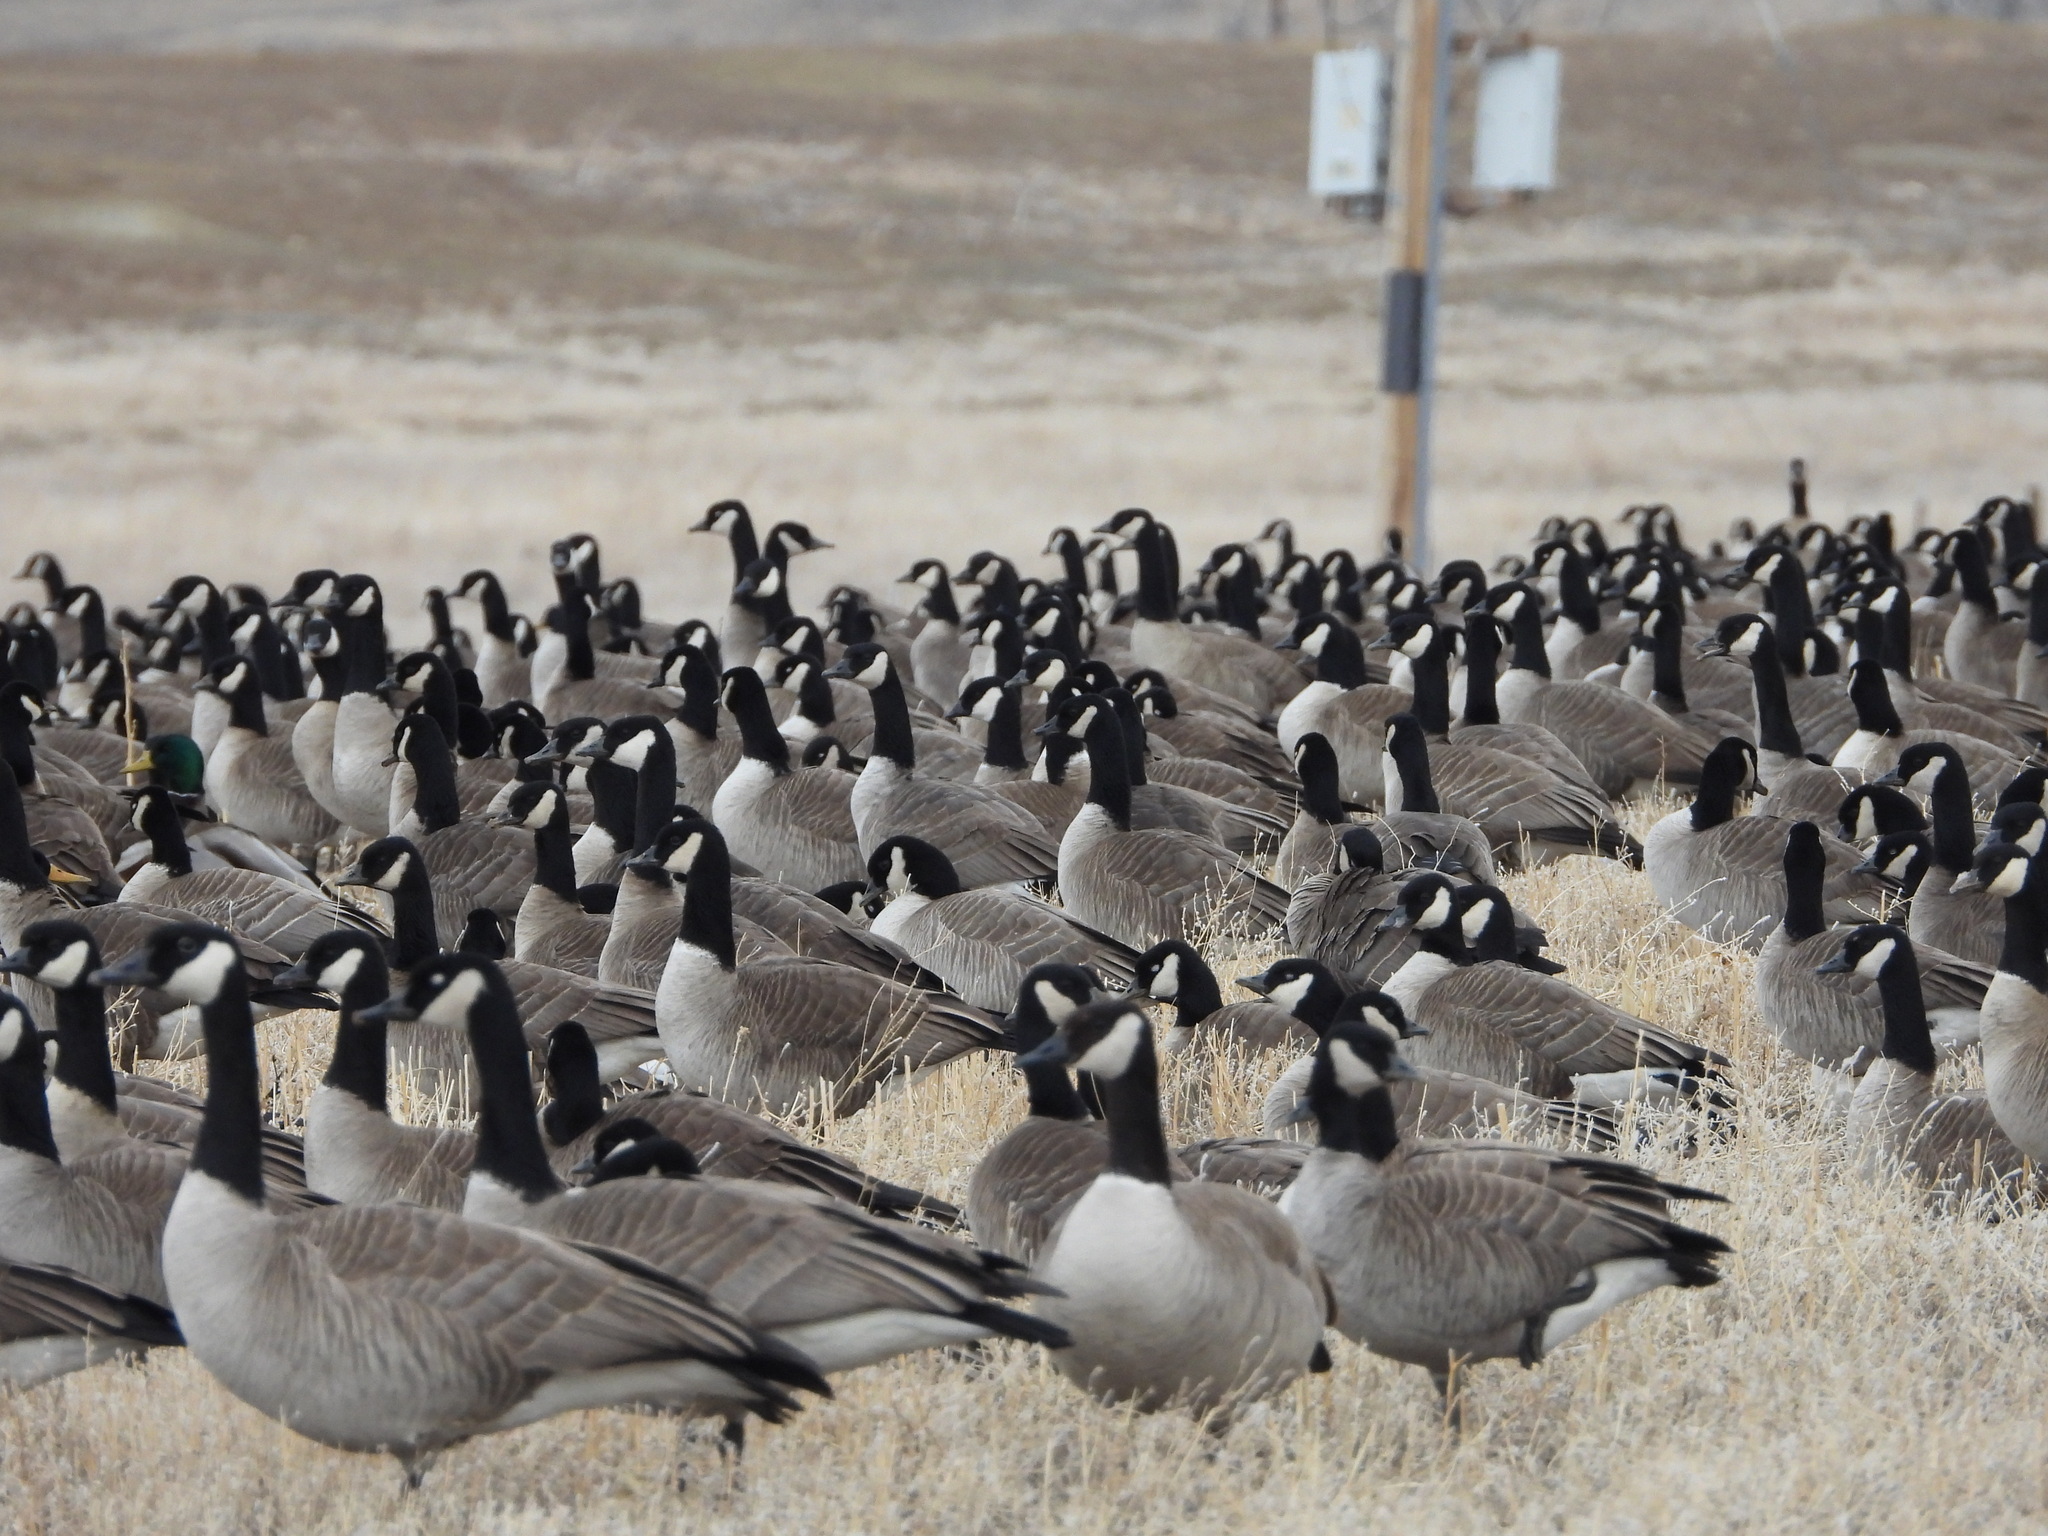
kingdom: Animalia
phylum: Chordata
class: Aves
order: Anseriformes
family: Anatidae
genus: Branta
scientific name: Branta canadensis
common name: Canada goose
